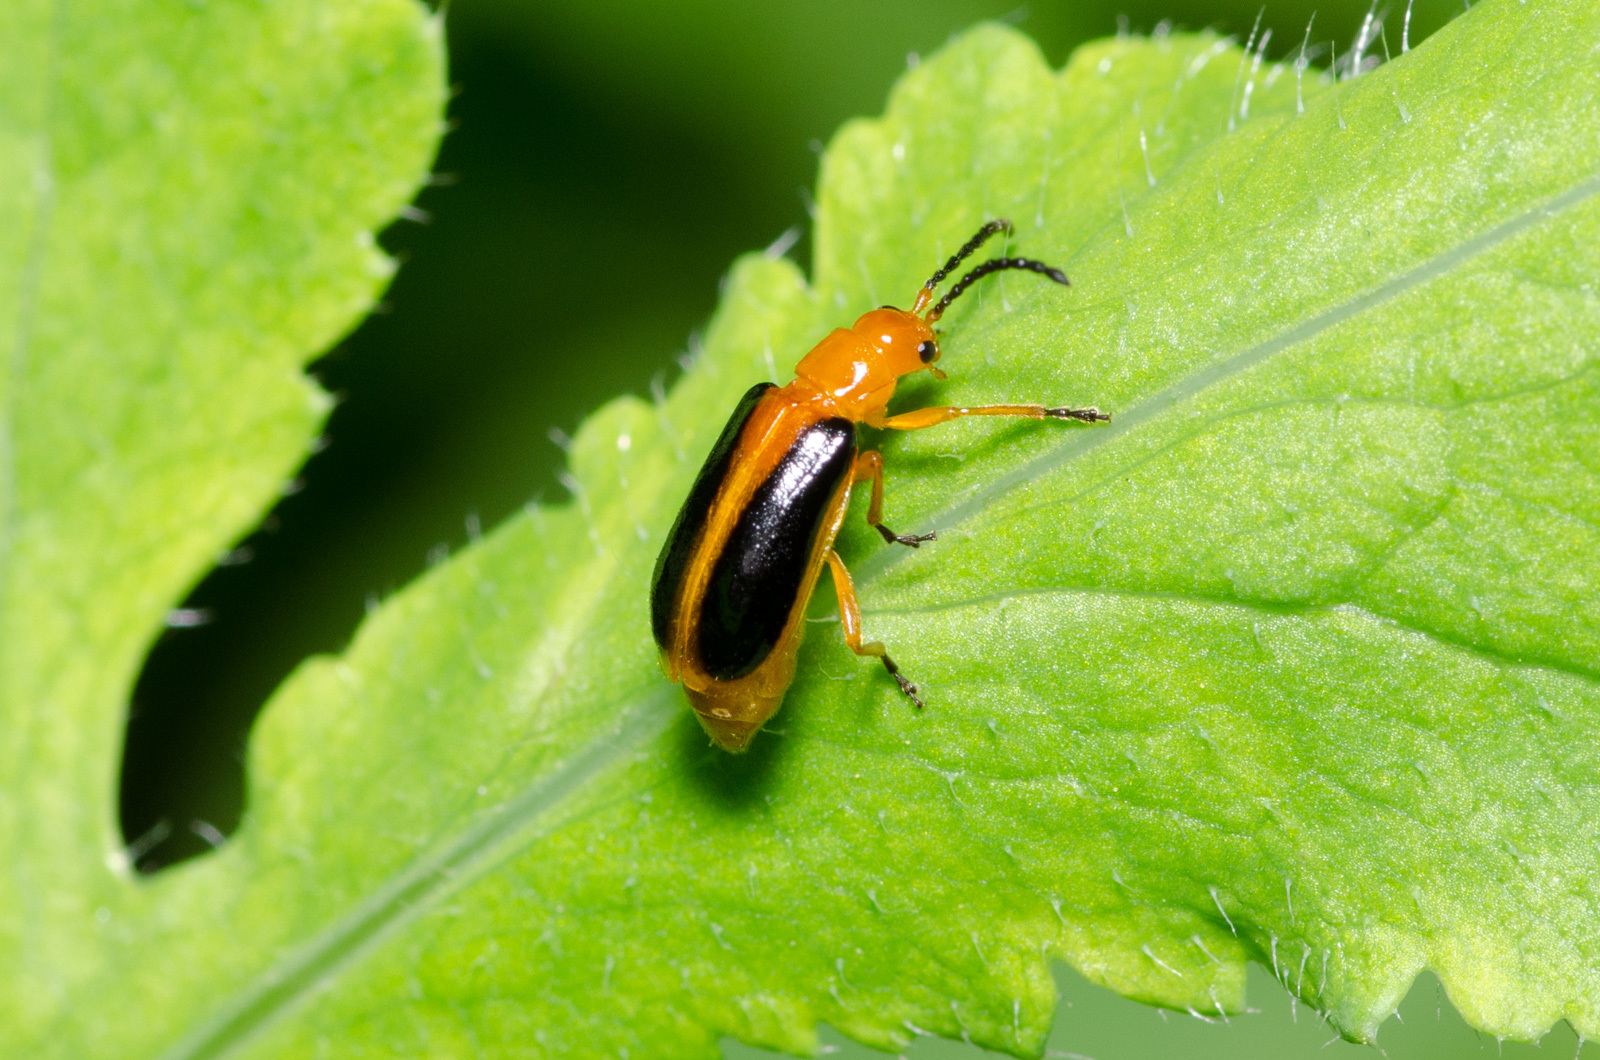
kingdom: Animalia
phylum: Arthropoda
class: Insecta
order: Coleoptera
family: Chrysomelidae
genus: Phyllobrotica
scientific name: Phyllobrotica limbata
